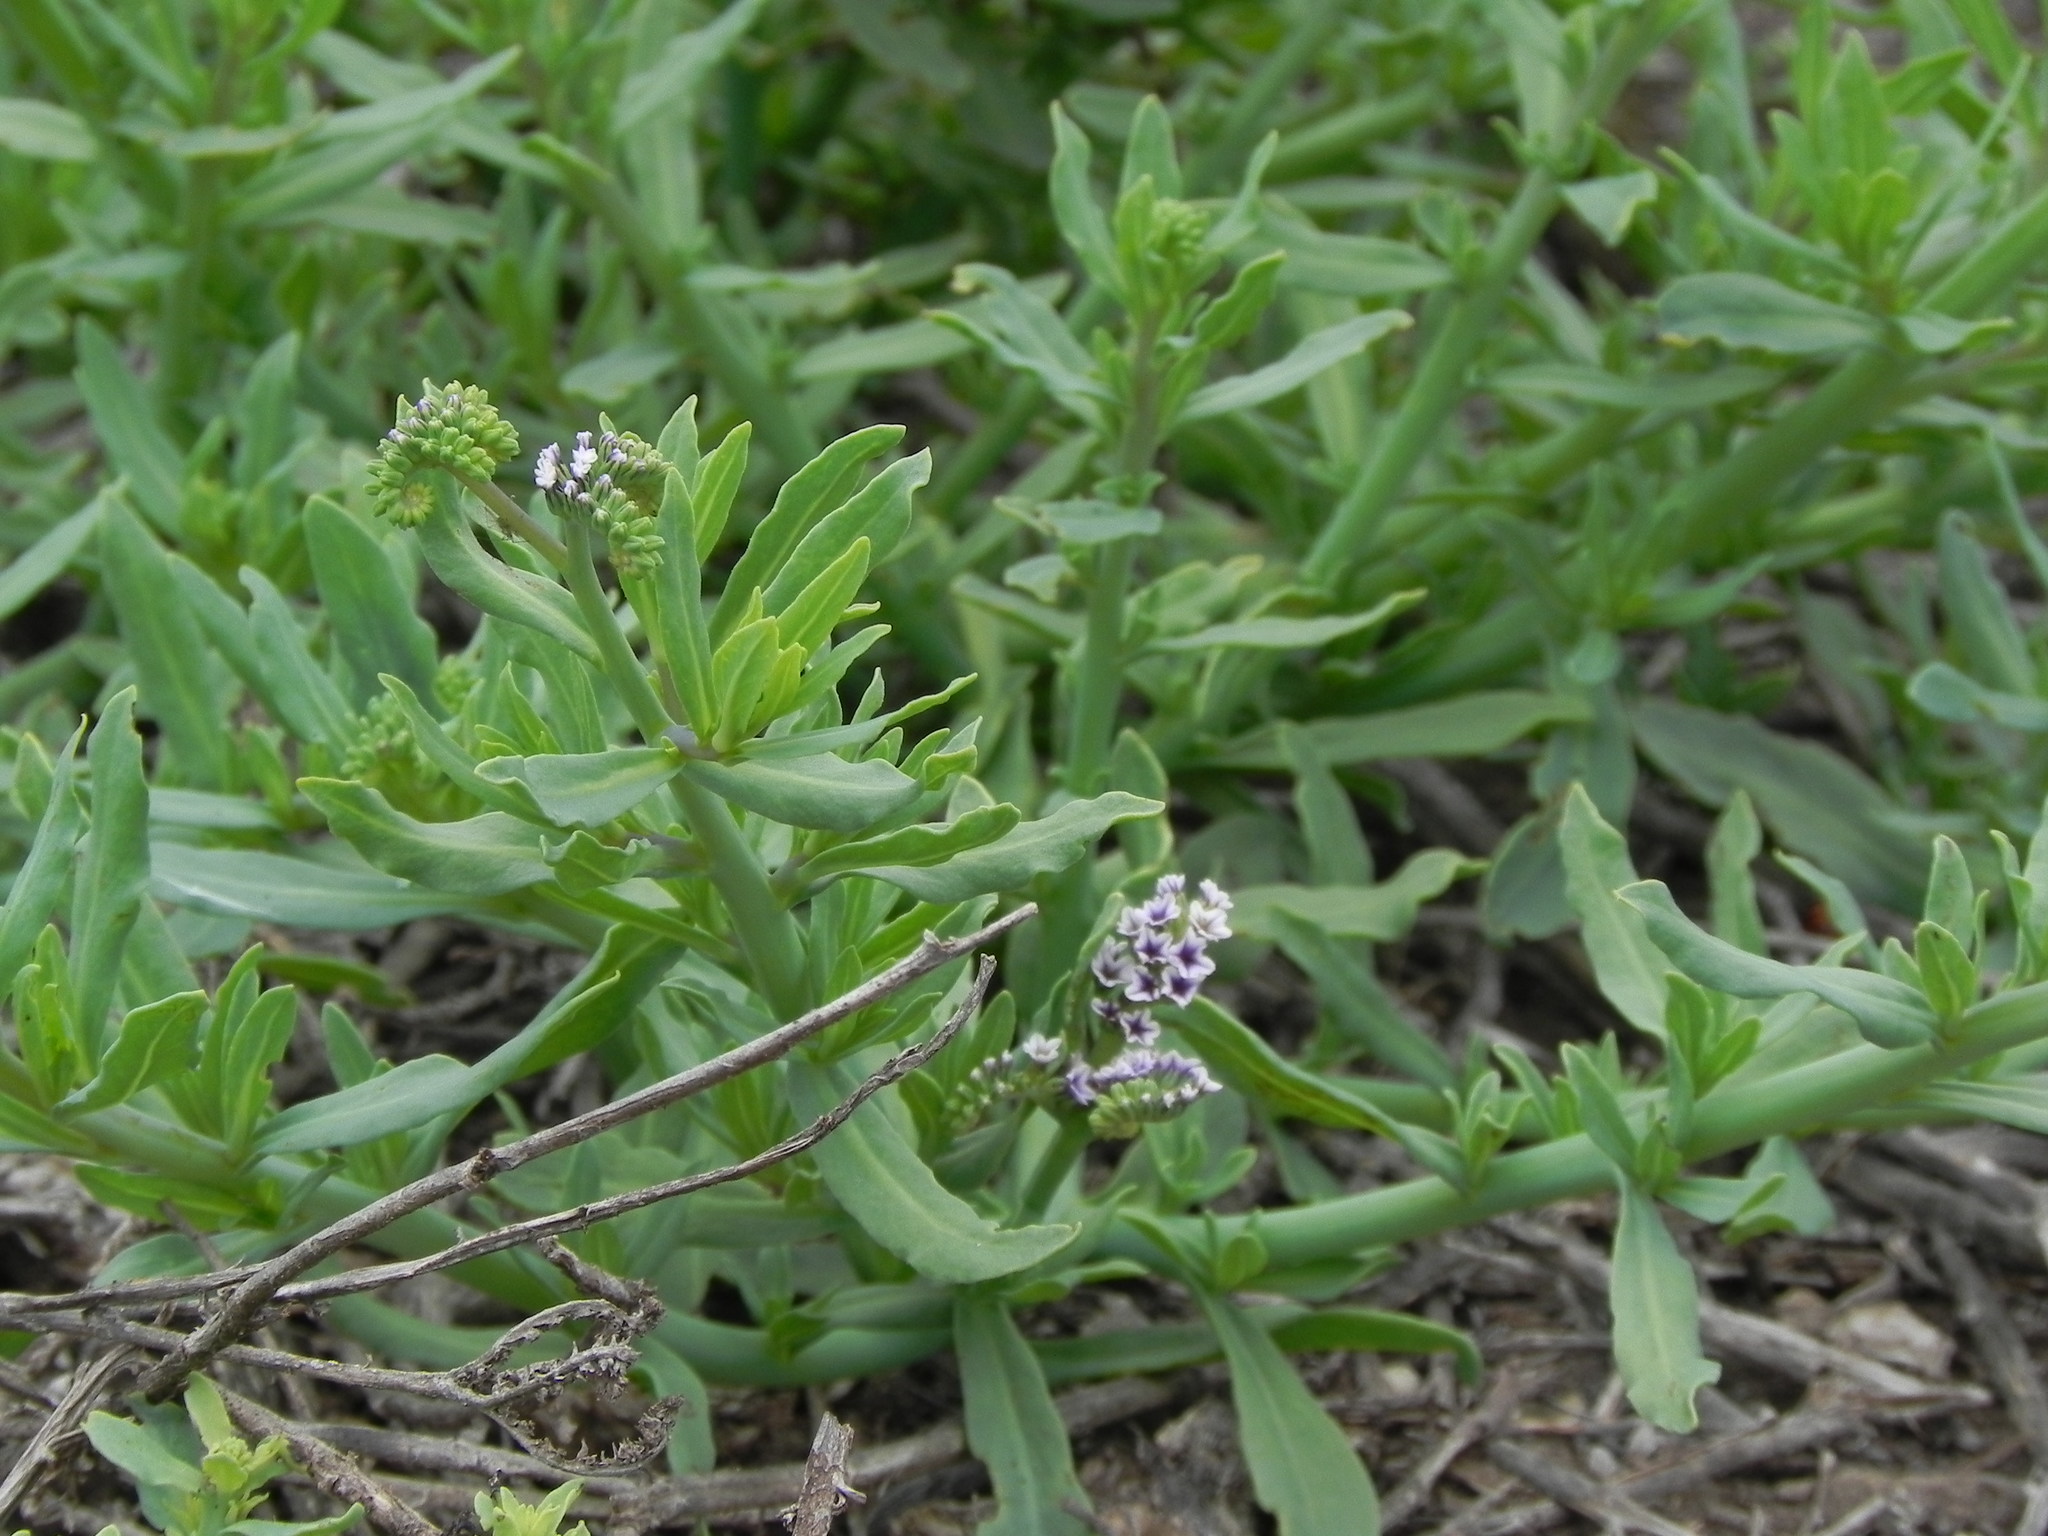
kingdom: Plantae
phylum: Tracheophyta
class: Magnoliopsida
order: Boraginales
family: Heliotropiaceae
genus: Heliotropium
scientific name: Heliotropium curassavicum
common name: Seaside heliotrope
